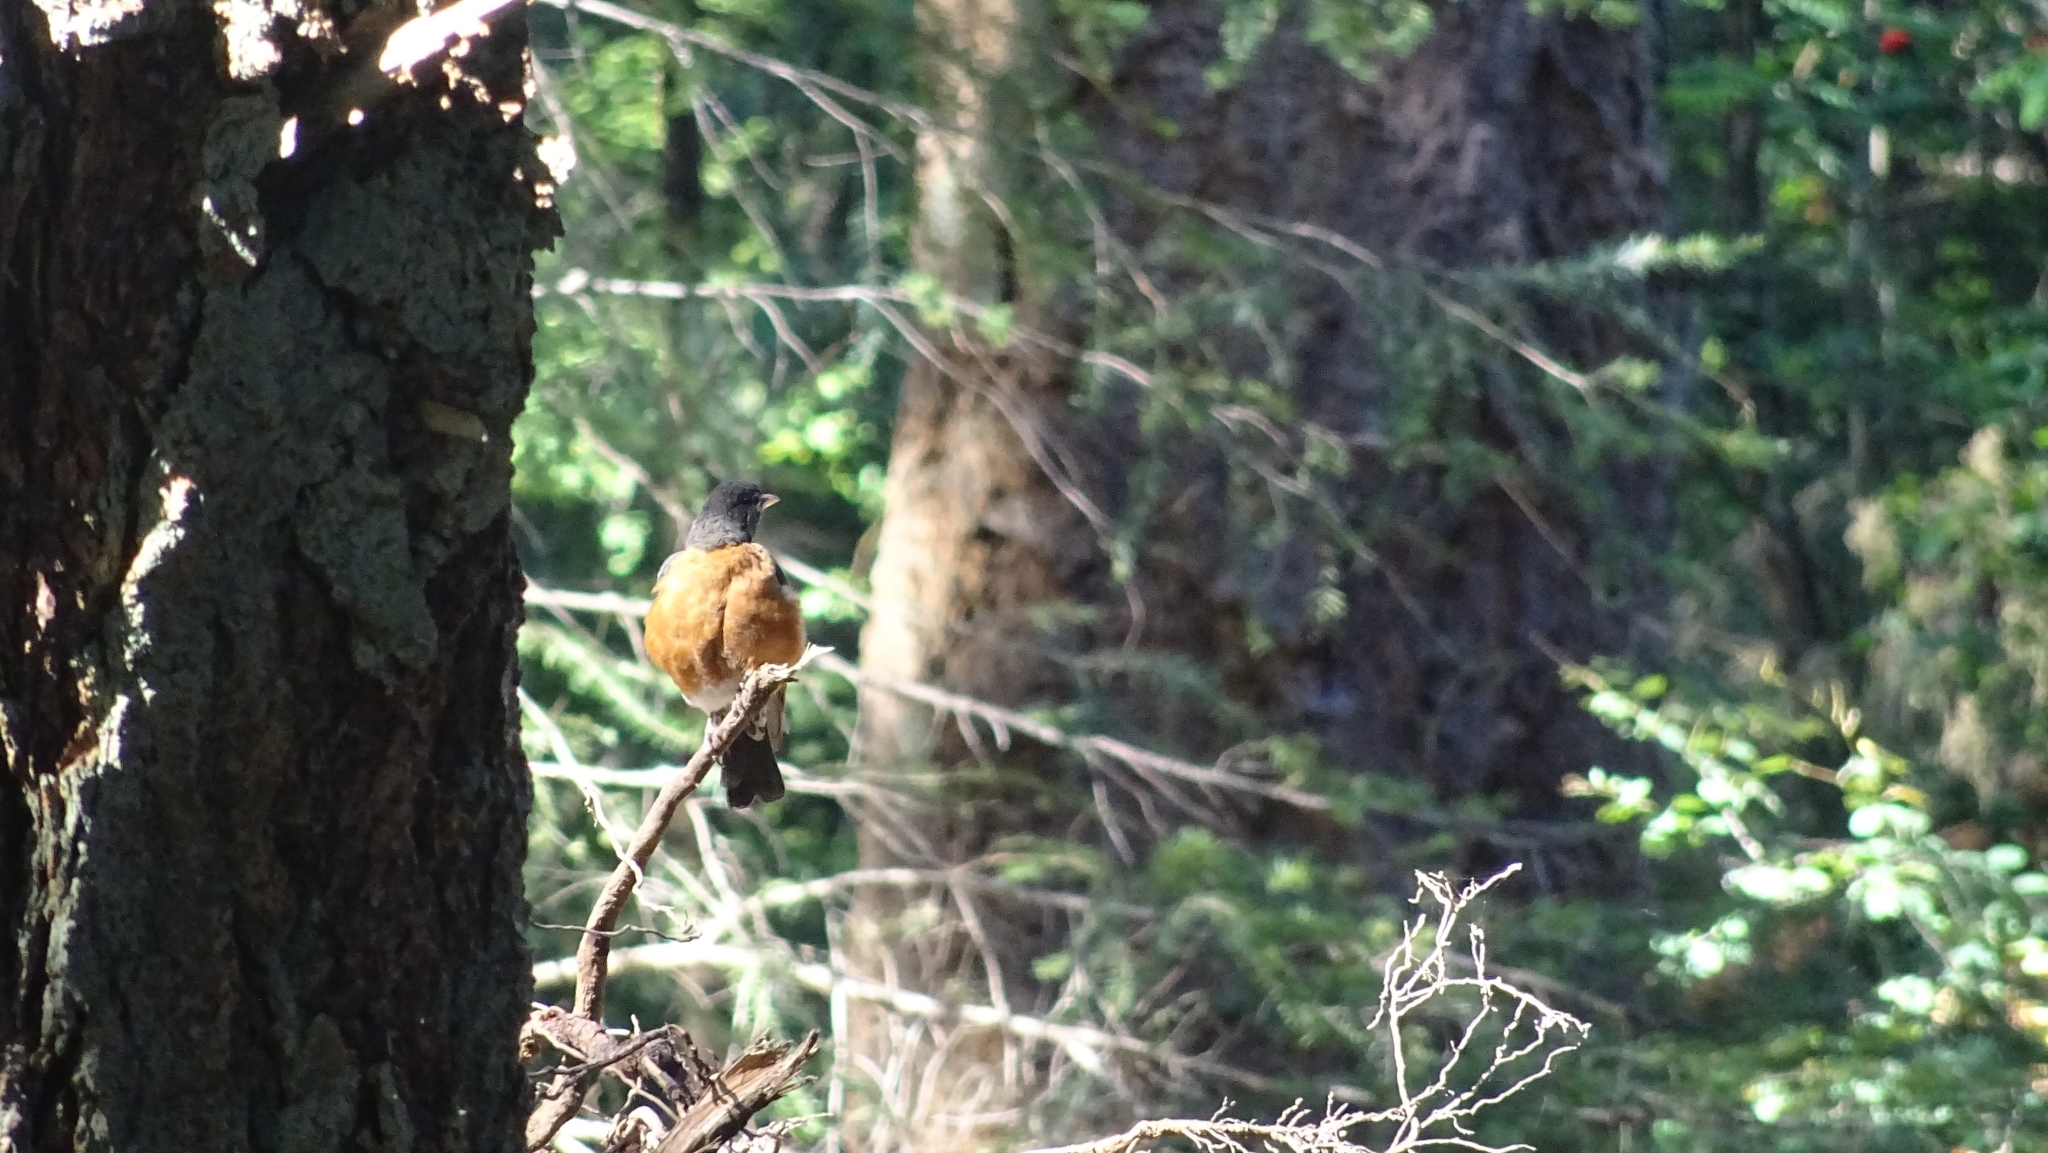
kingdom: Animalia
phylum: Chordata
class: Aves
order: Passeriformes
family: Turdidae
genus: Turdus
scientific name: Turdus migratorius
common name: American robin
